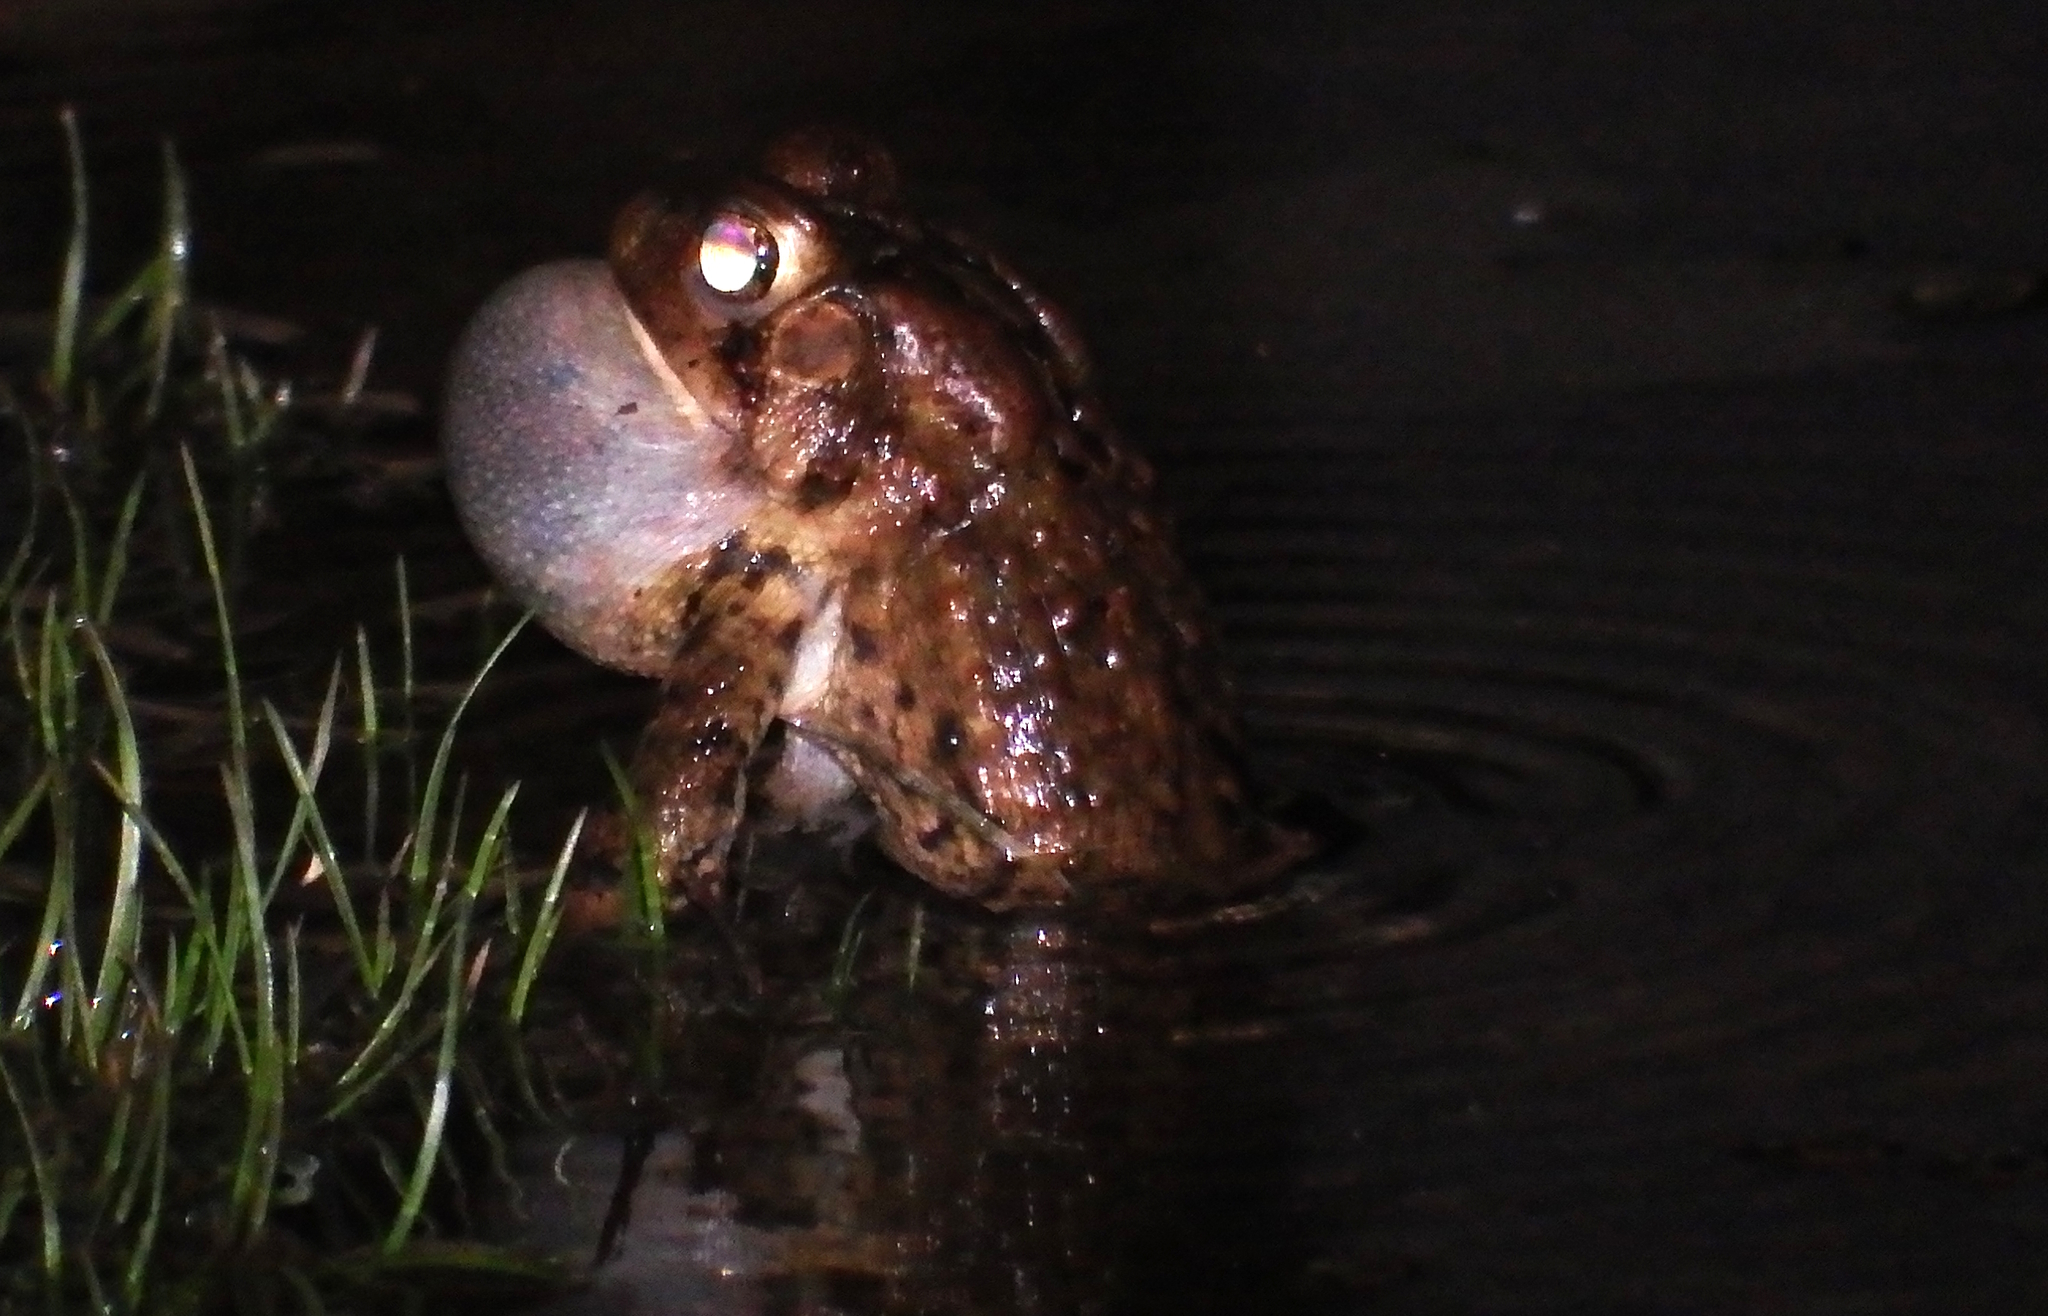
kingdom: Animalia
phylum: Chordata
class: Amphibia
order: Anura
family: Bufonidae
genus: Anaxyrus
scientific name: Anaxyrus americanus
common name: American toad
